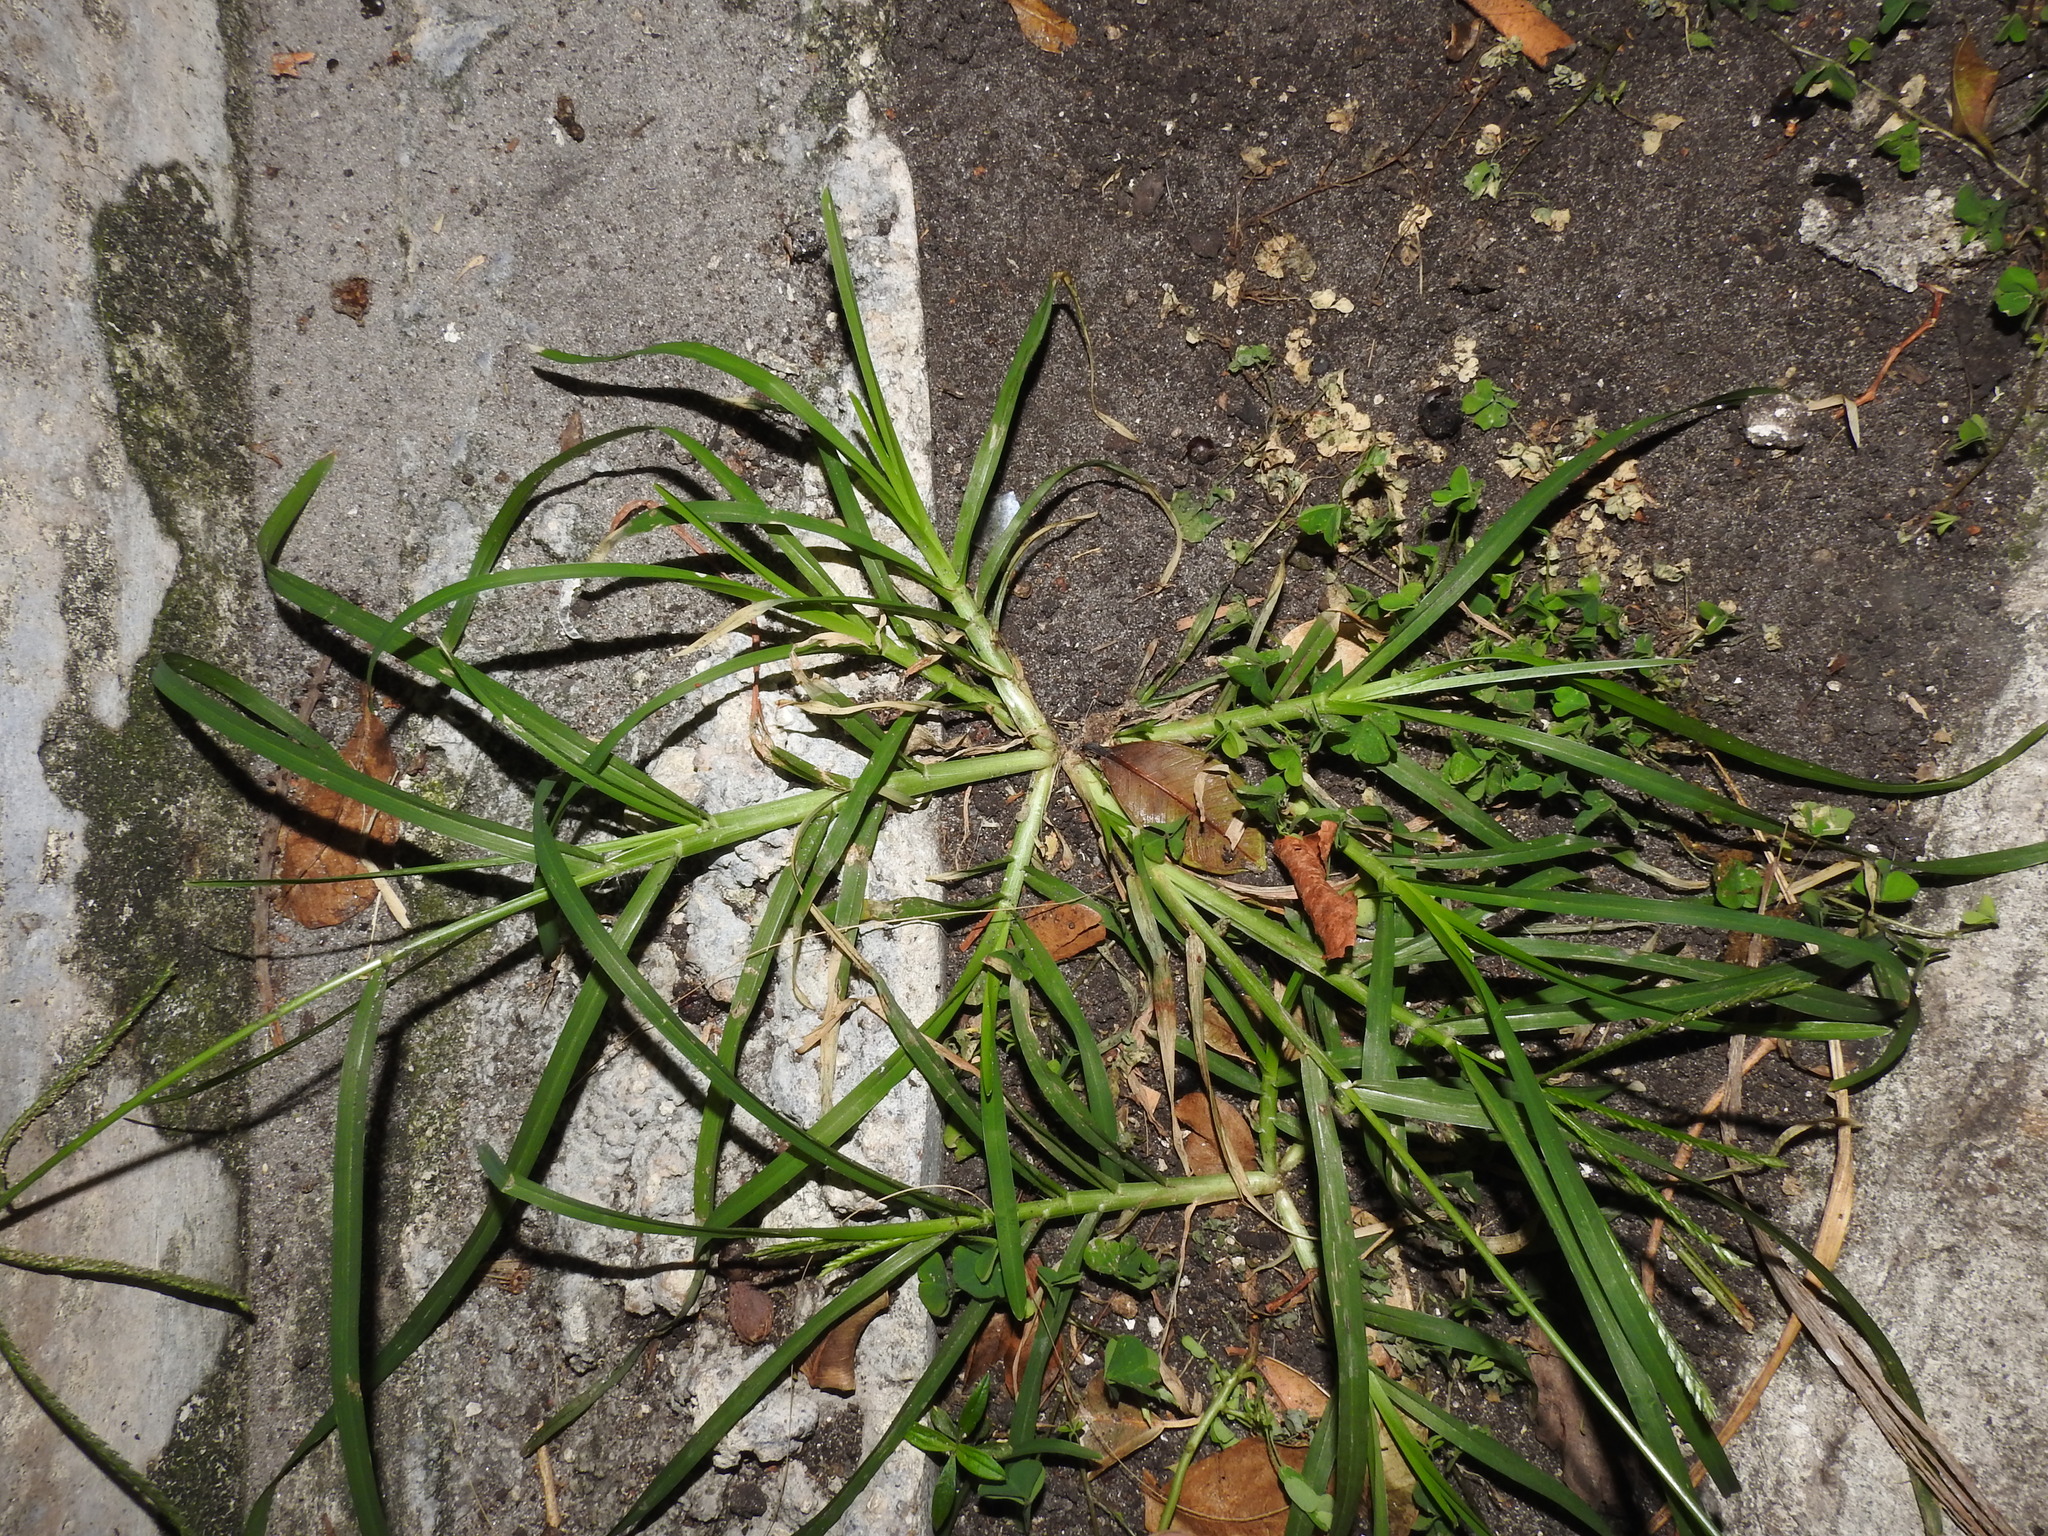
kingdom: Plantae
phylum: Tracheophyta
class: Liliopsida
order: Poales
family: Poaceae
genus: Eleusine
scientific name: Eleusine indica
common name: Yard-grass
